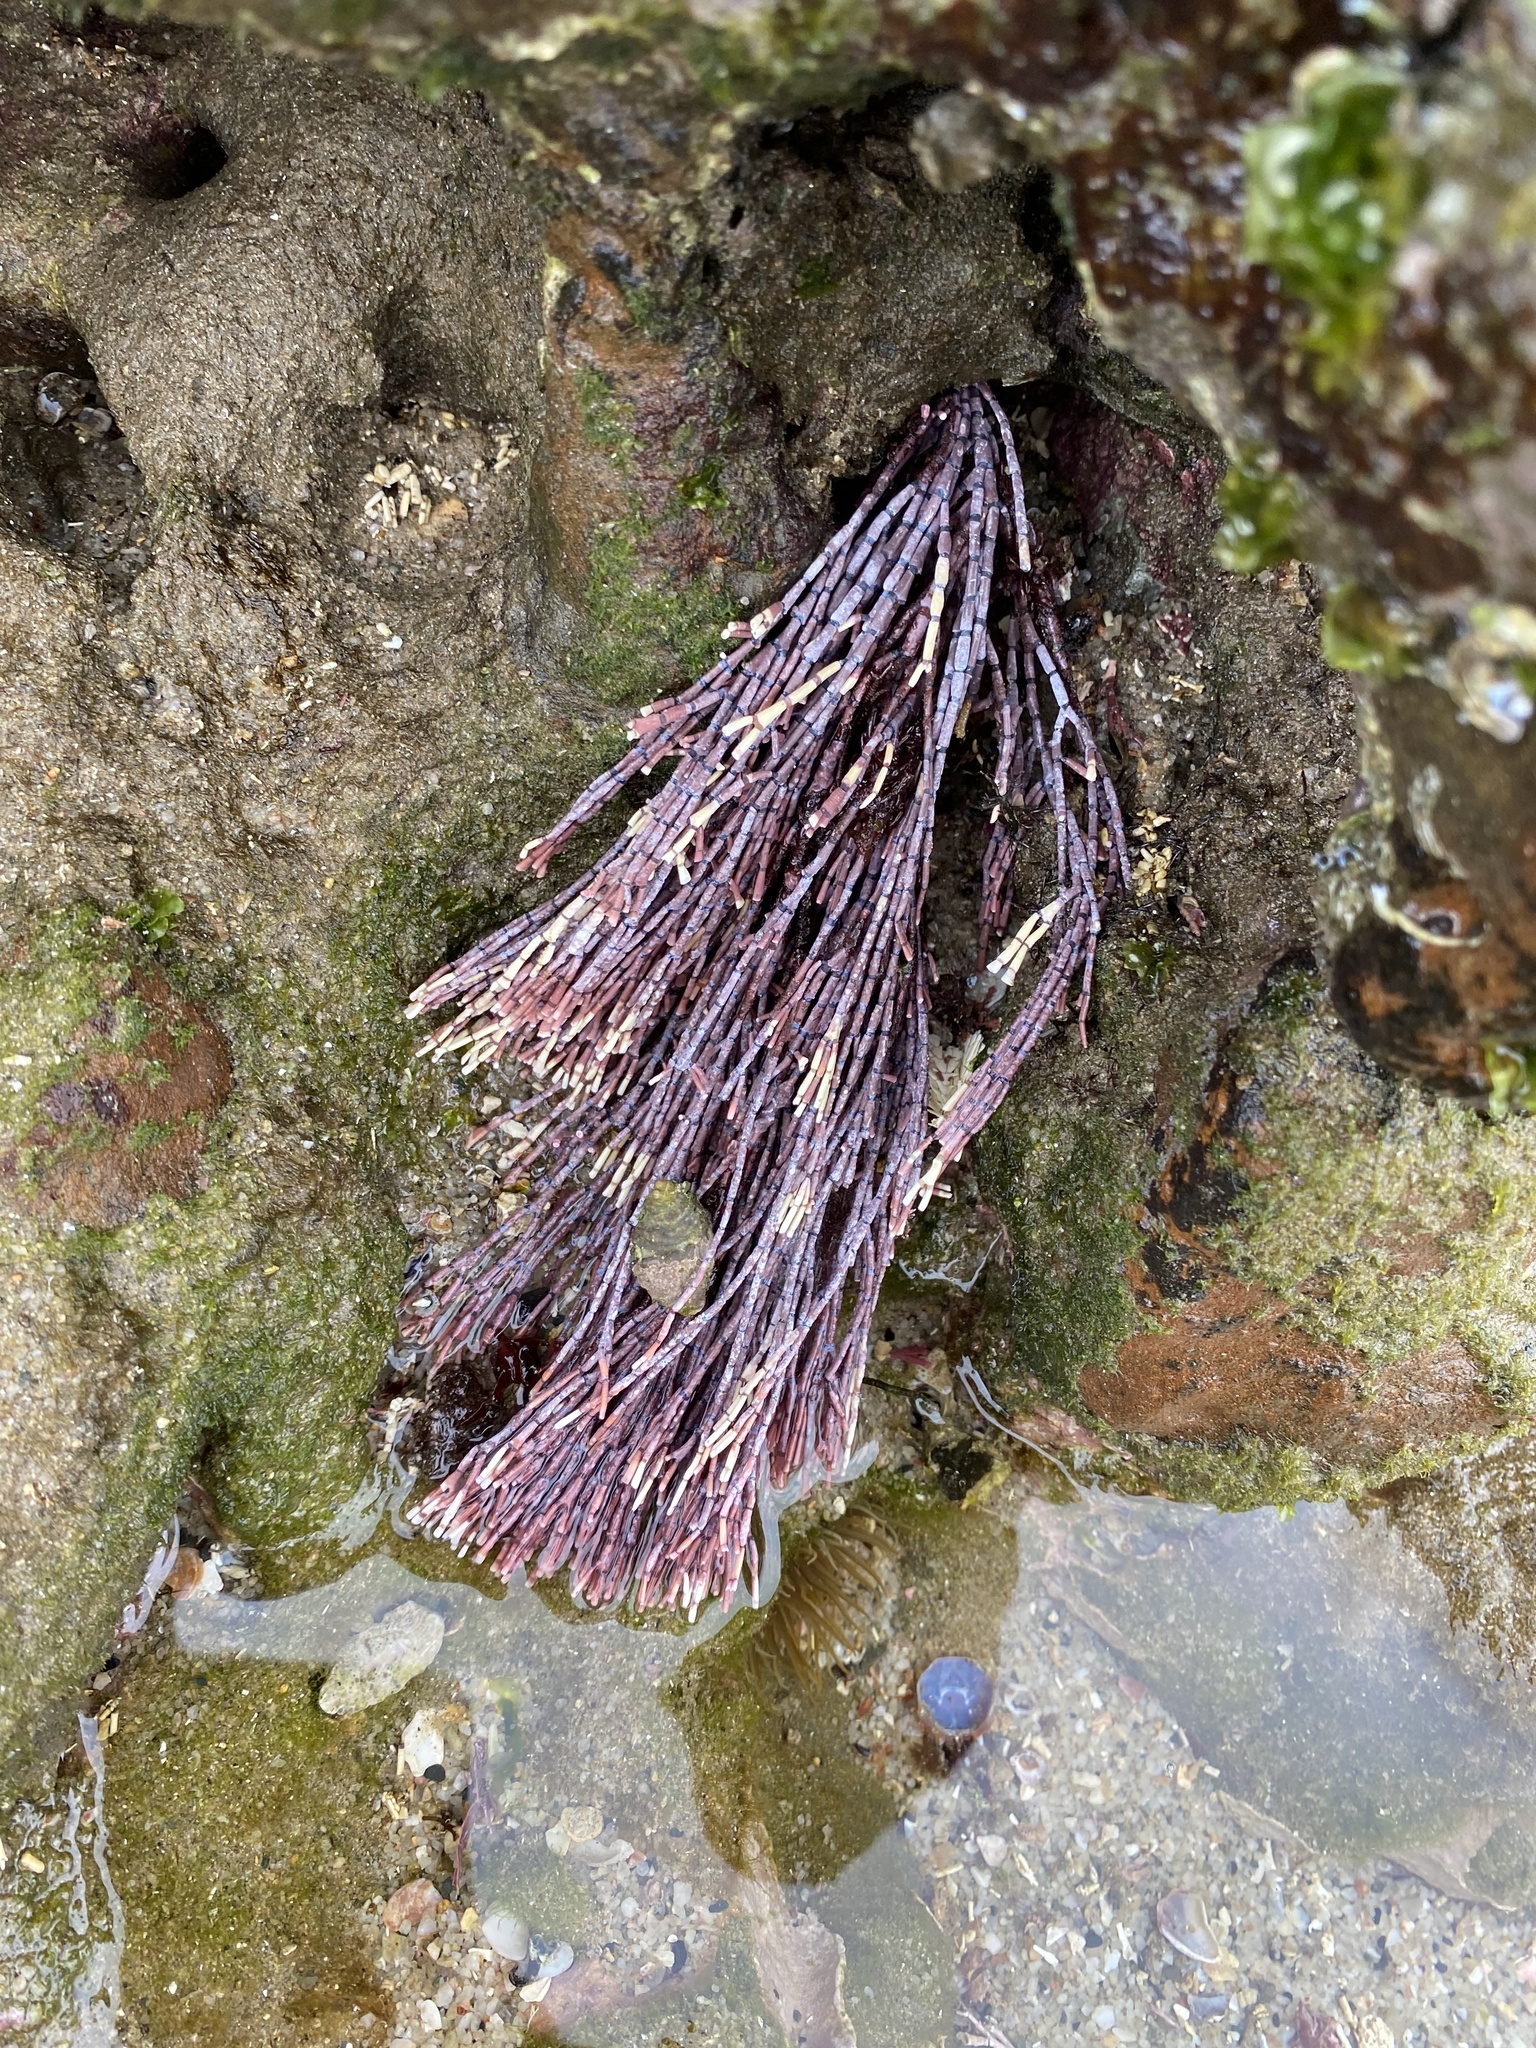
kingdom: Plantae
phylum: Rhodophyta
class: Florideophyceae
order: Corallinales
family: Corallinaceae
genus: Corallina
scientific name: Corallina Amphiroa ephedraea
